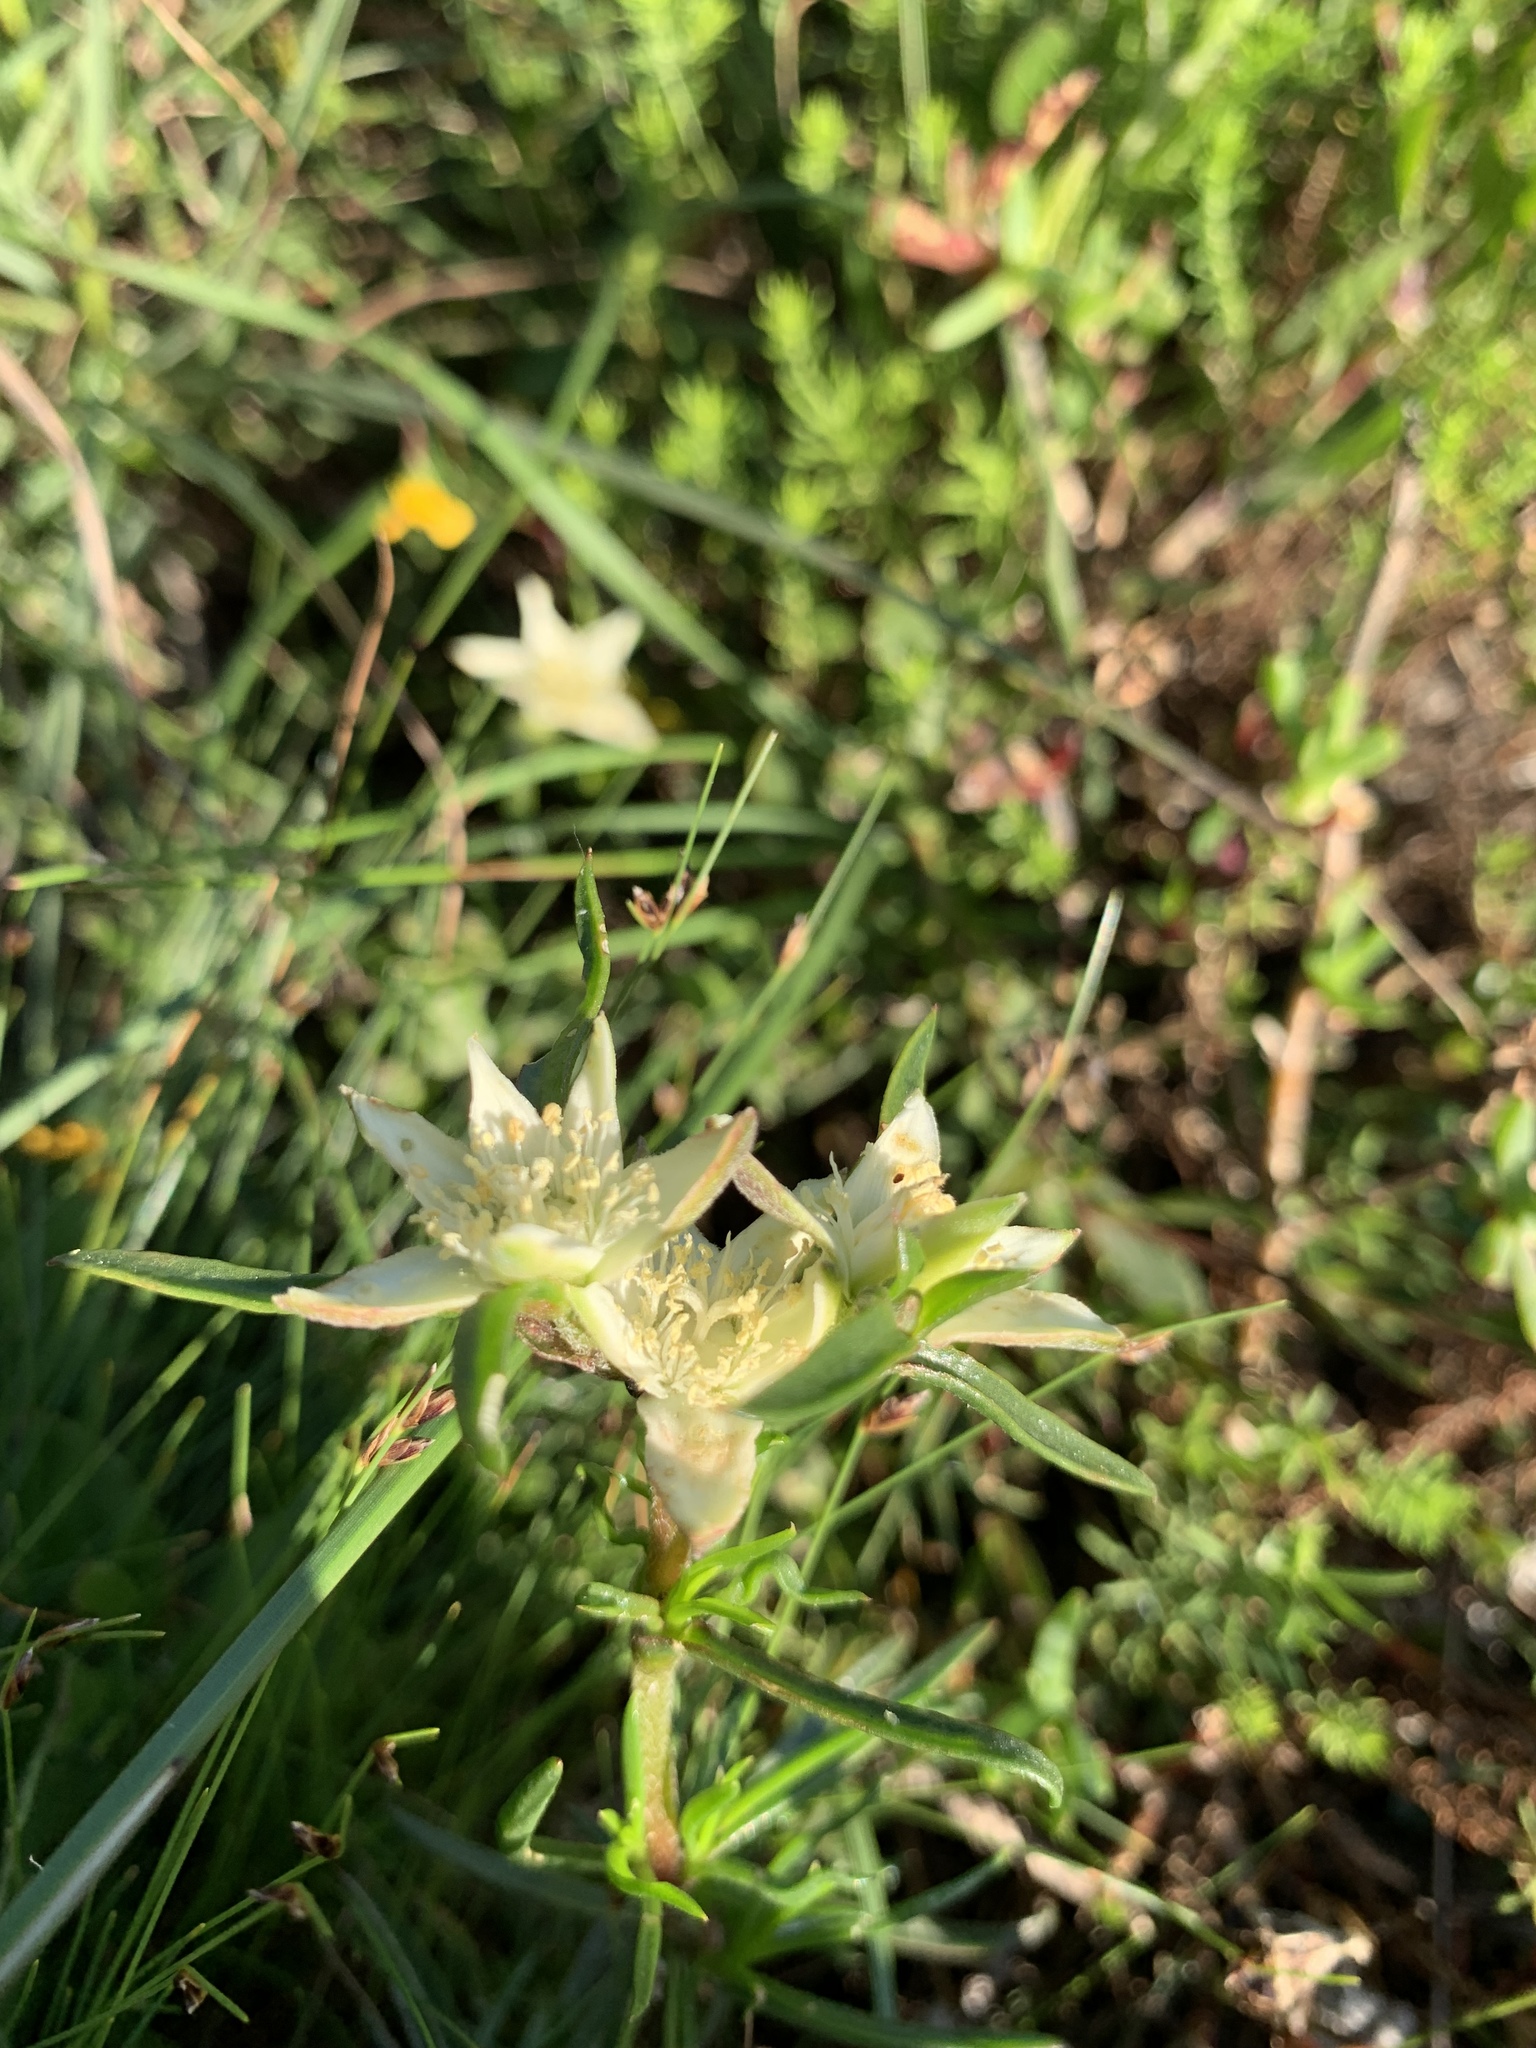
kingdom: Plantae
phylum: Tracheophyta
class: Magnoliopsida
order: Caryophyllales
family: Aizoaceae
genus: Aizoon
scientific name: Aizoon sarmentosum
